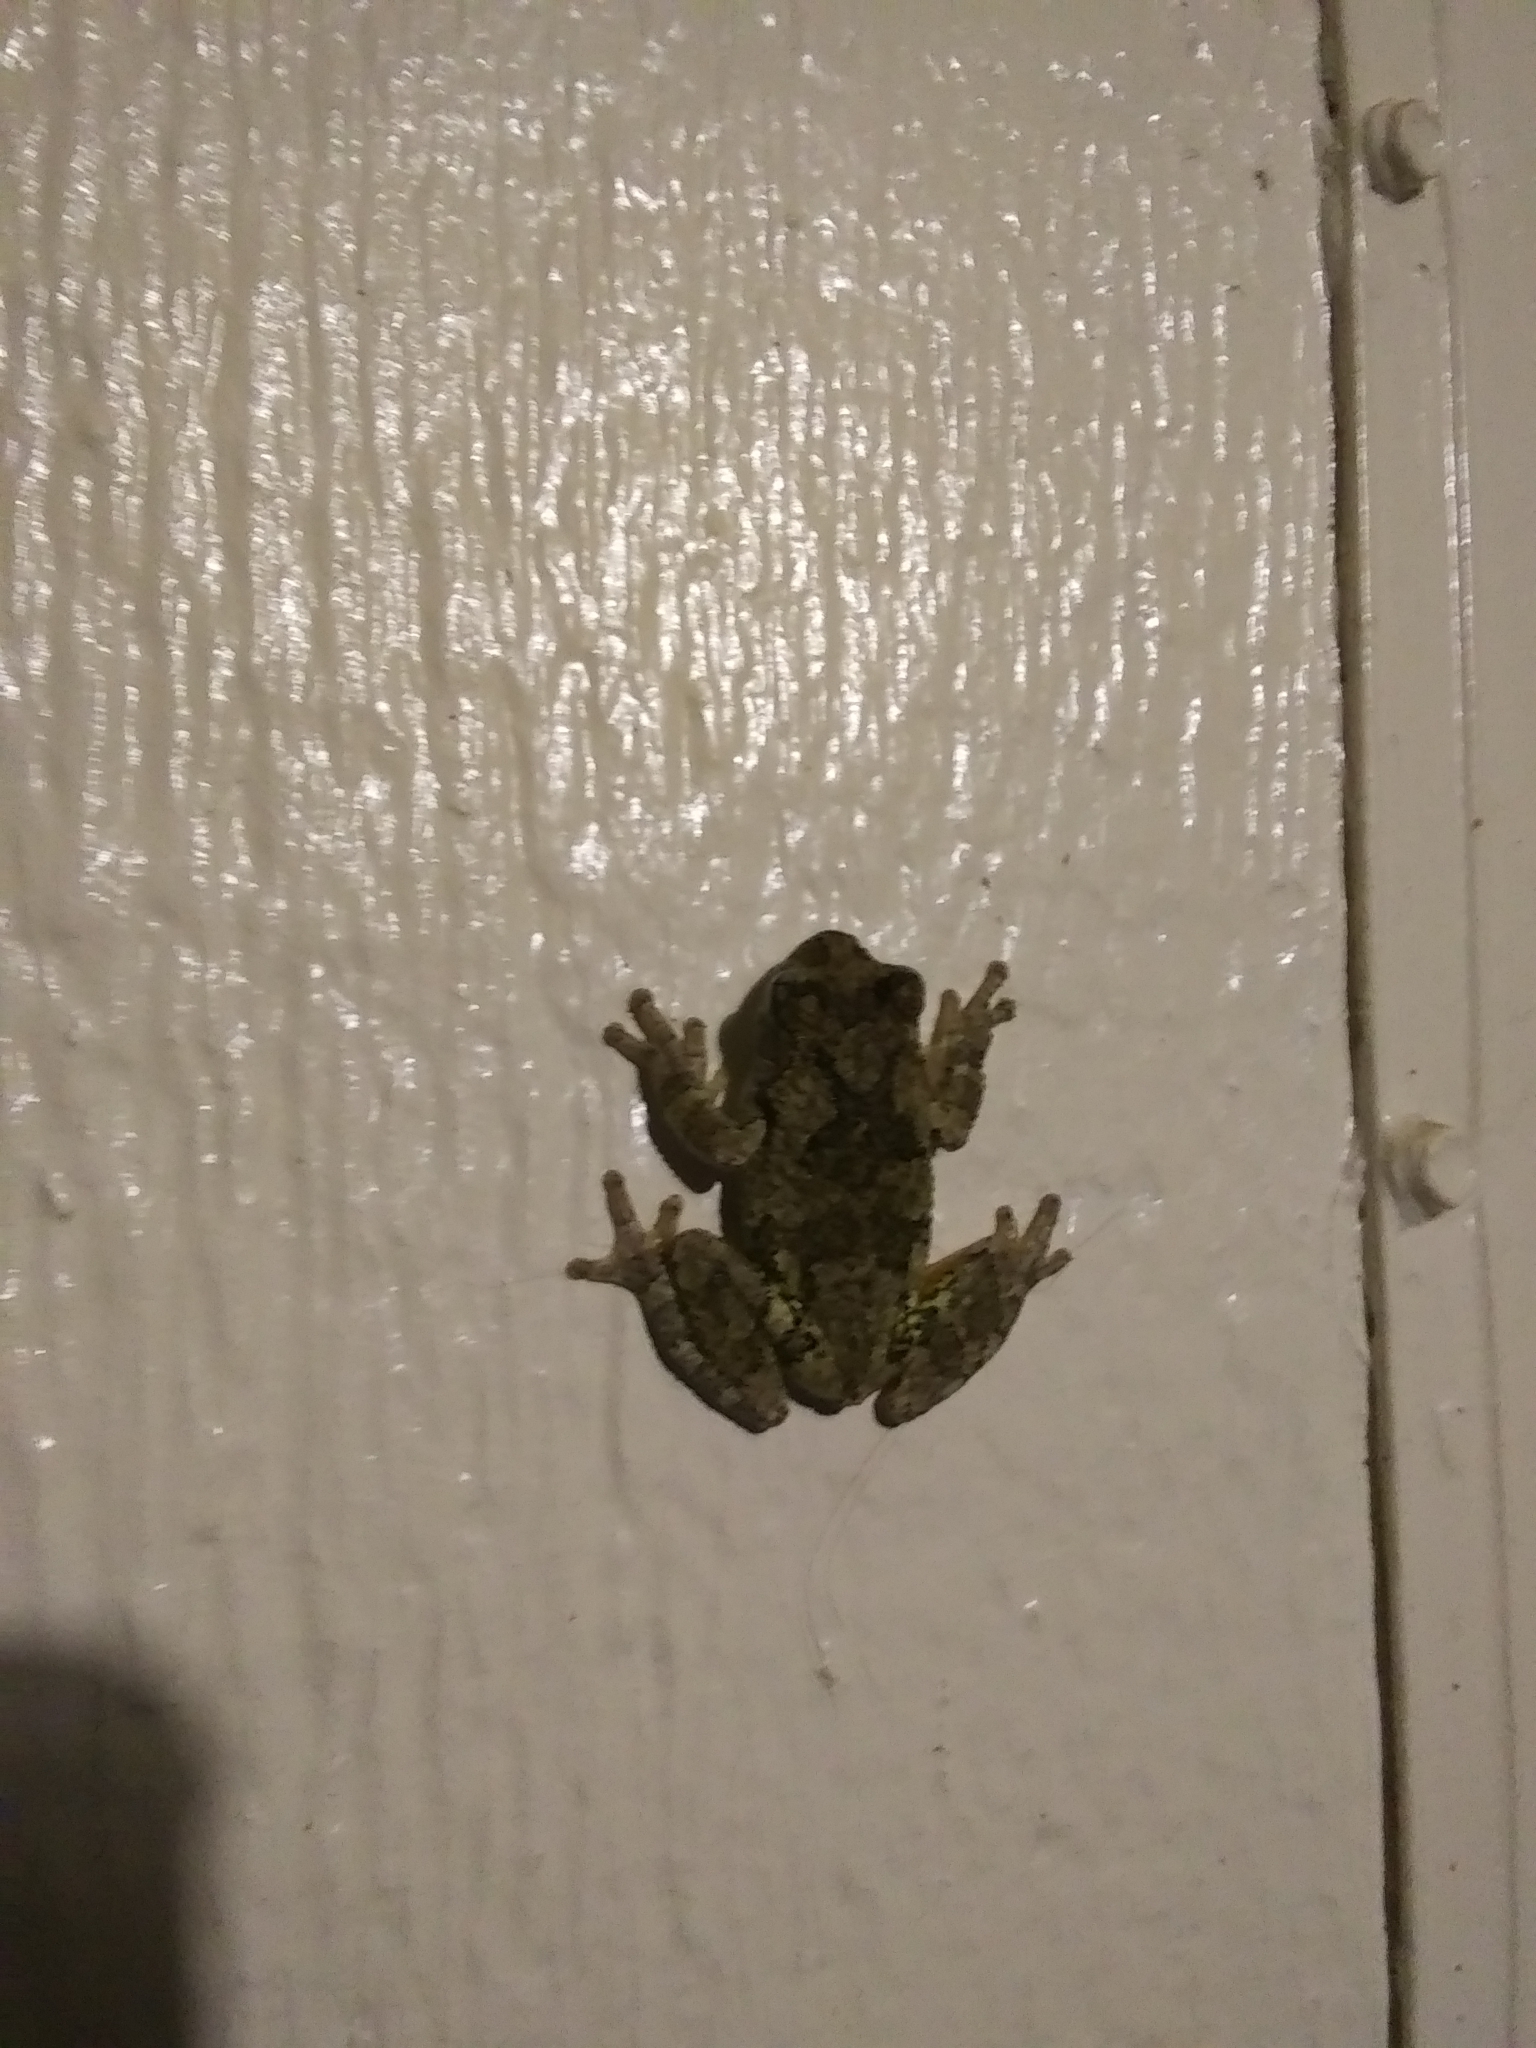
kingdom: Animalia
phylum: Chordata
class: Amphibia
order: Anura
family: Hylidae
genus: Dryophytes
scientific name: Dryophytes chrysoscelis
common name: Cope's gray treefrog
